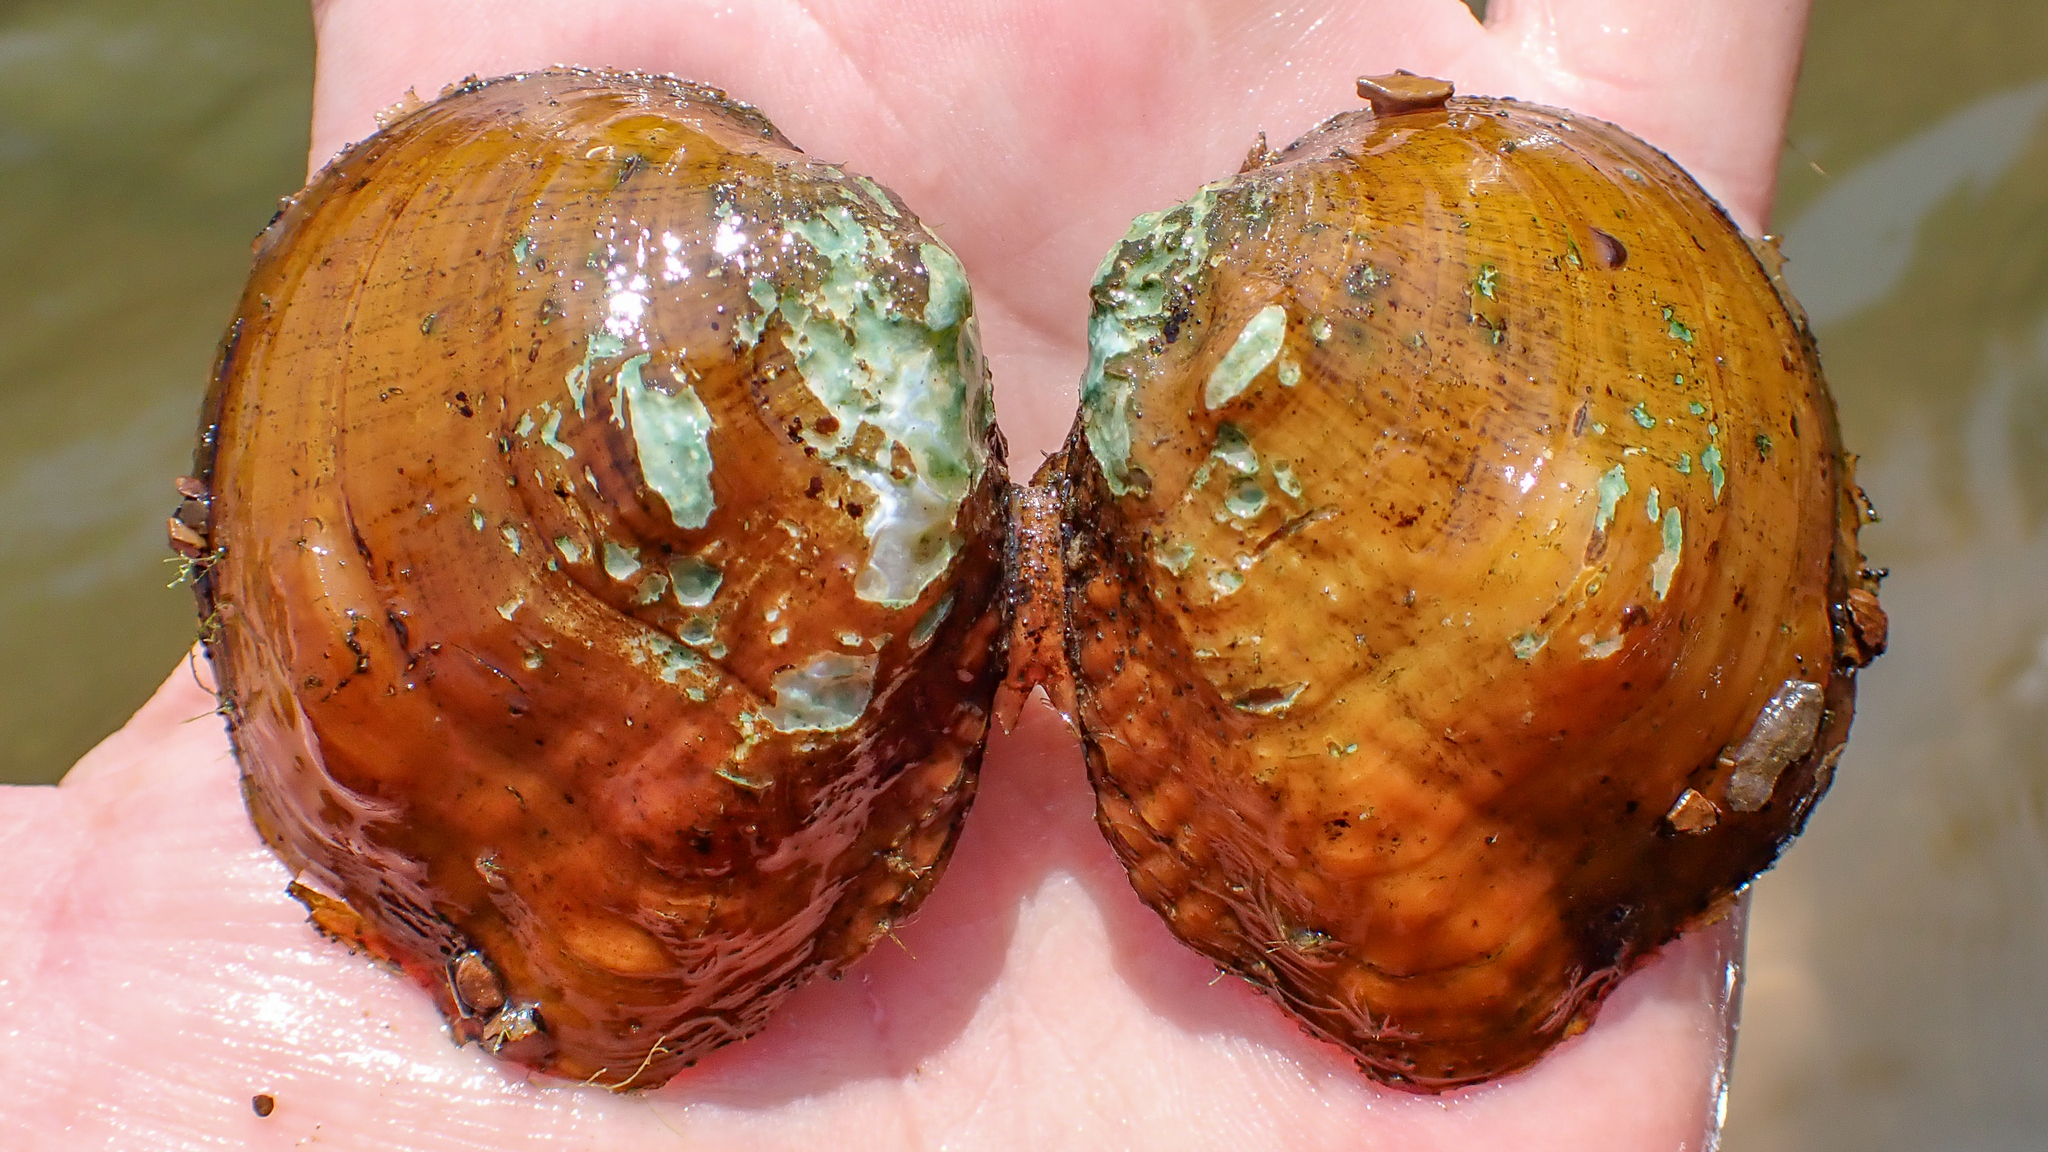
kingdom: Animalia
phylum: Mollusca
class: Bivalvia
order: Unionida
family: Unionidae
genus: Obliquaria
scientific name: Obliquaria reflexa
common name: Threehorn wartyback
